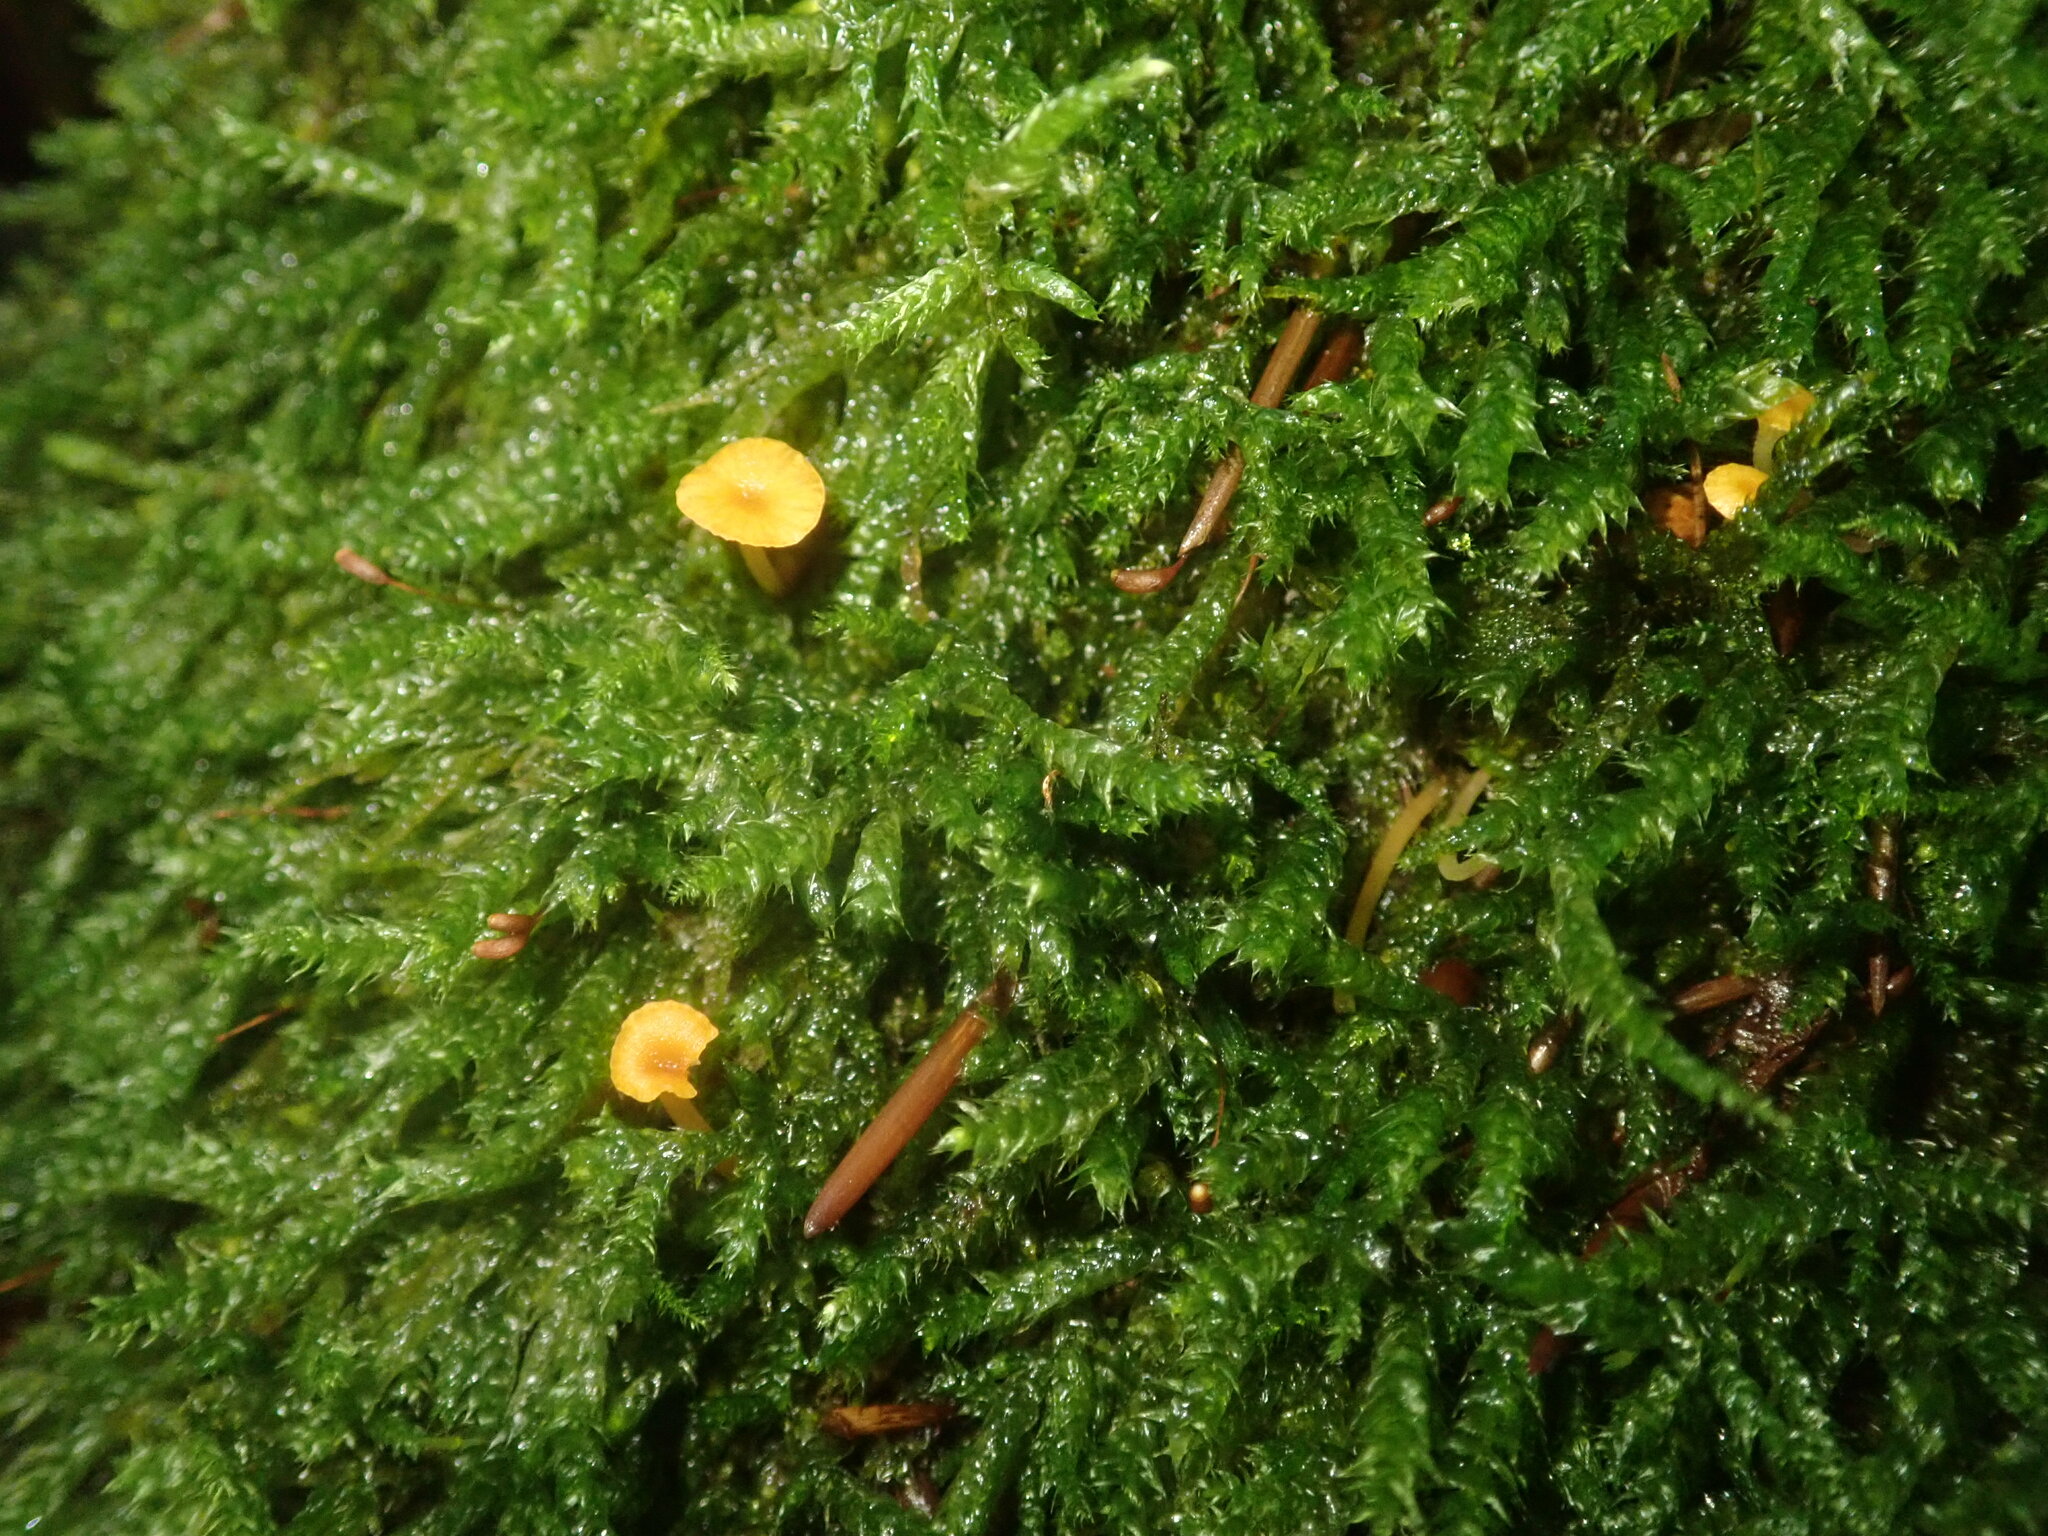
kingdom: Fungi
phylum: Basidiomycota
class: Agaricomycetes
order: Hymenochaetales
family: Rickenellaceae
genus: Rickenella
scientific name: Rickenella fibula
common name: Orange mosscap
